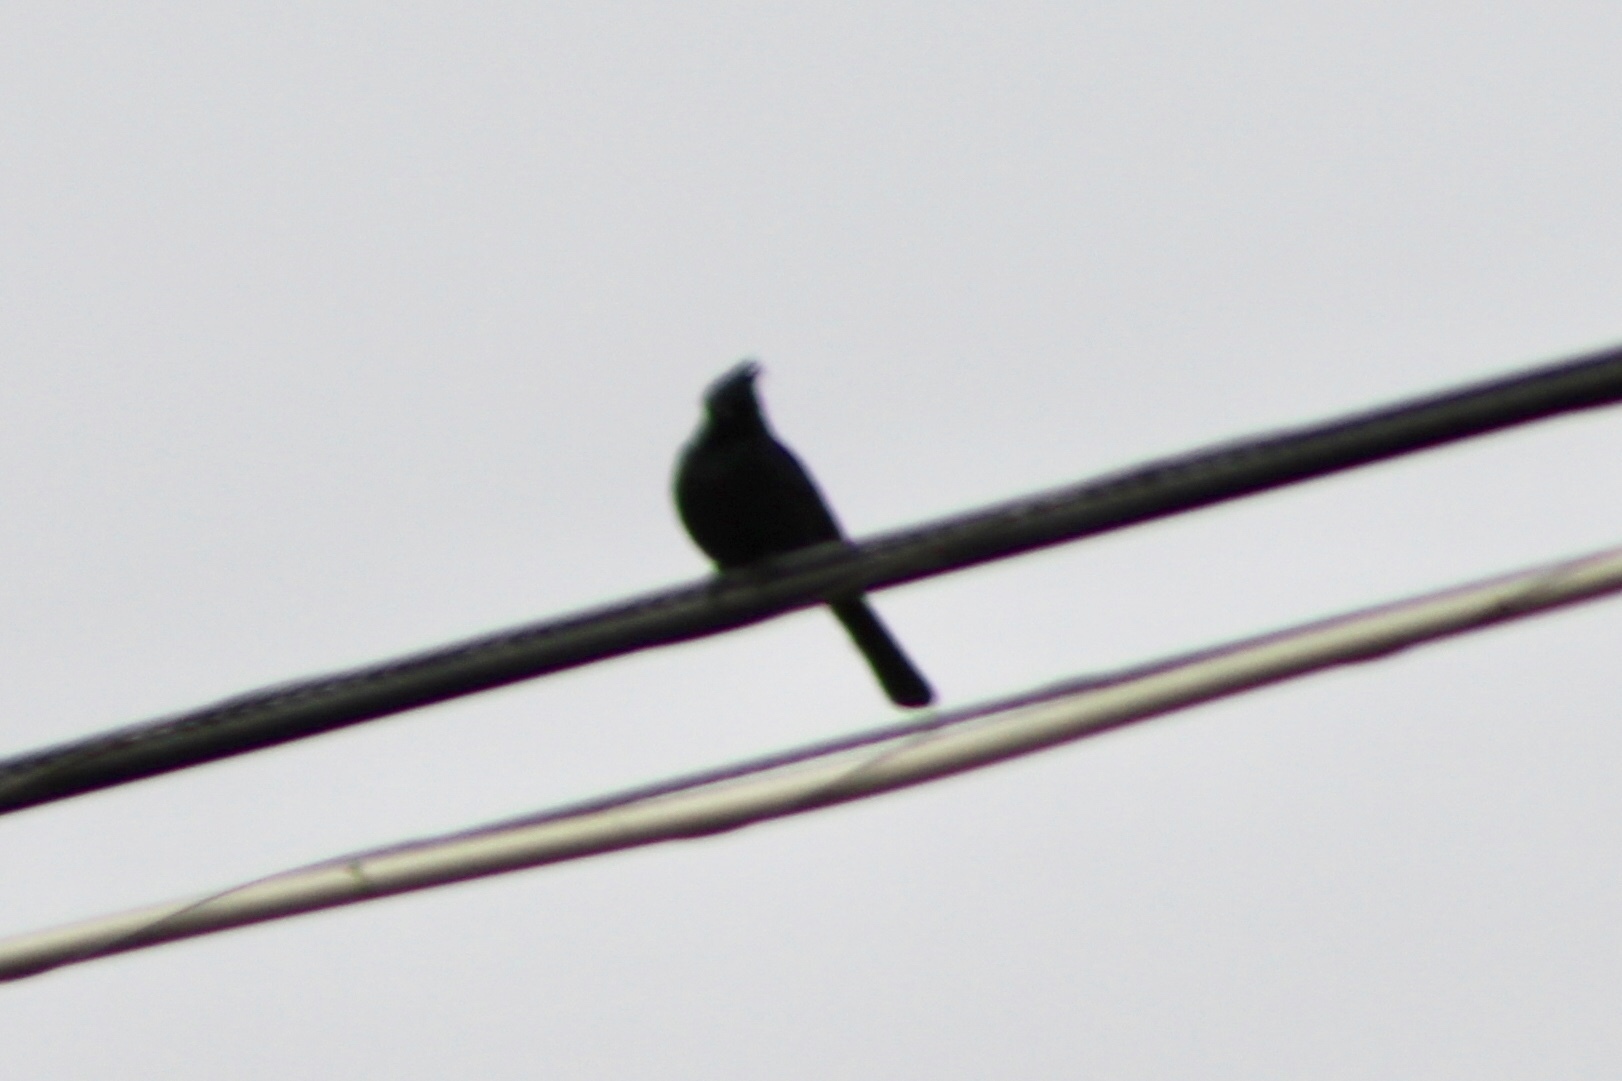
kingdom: Animalia
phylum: Chordata
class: Aves
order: Passeriformes
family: Ptilogonatidae
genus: Phainopepla
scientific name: Phainopepla nitens
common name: Phainopepla
